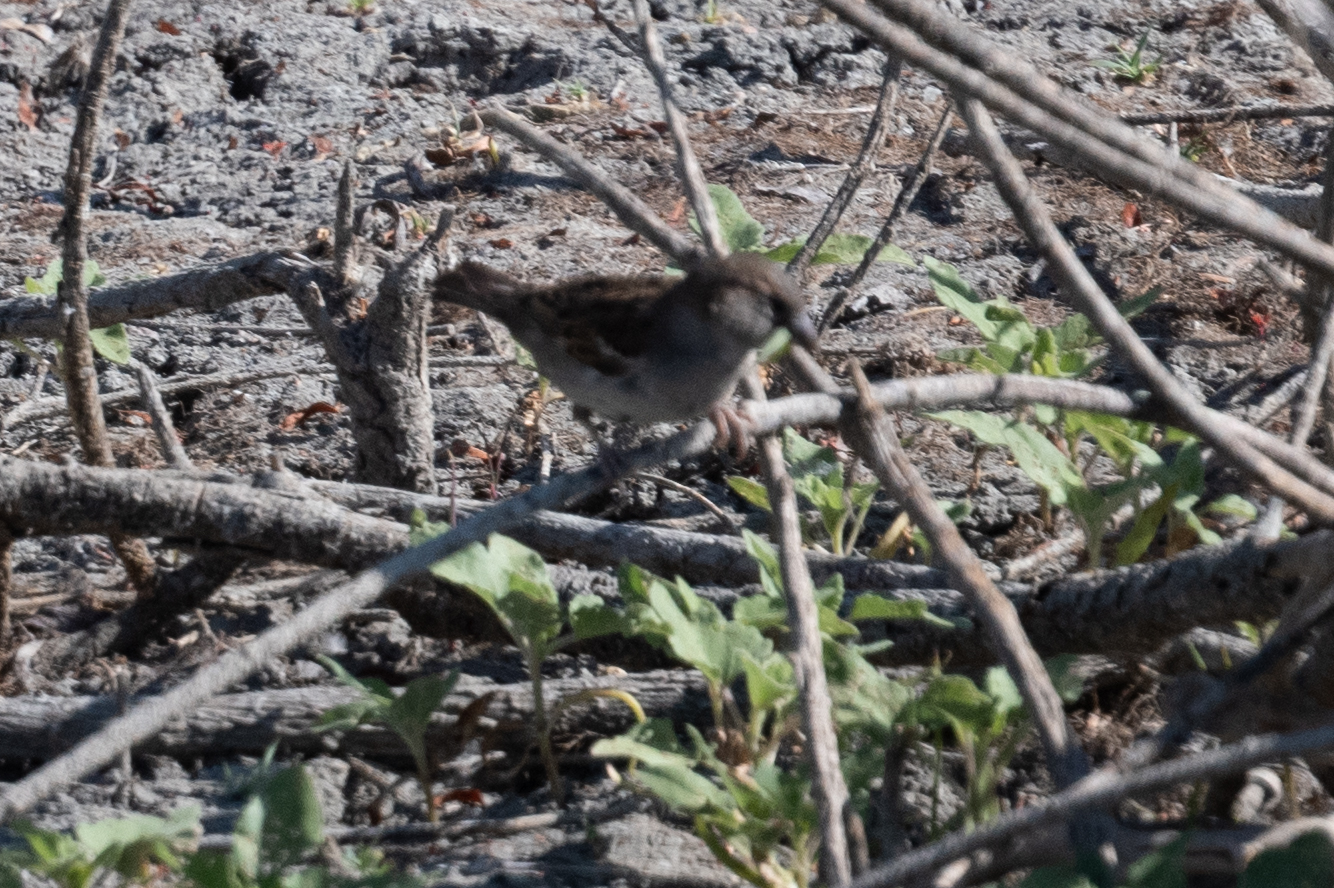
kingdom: Animalia
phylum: Chordata
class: Aves
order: Passeriformes
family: Passeridae
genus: Passer
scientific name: Passer domesticus
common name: House sparrow
